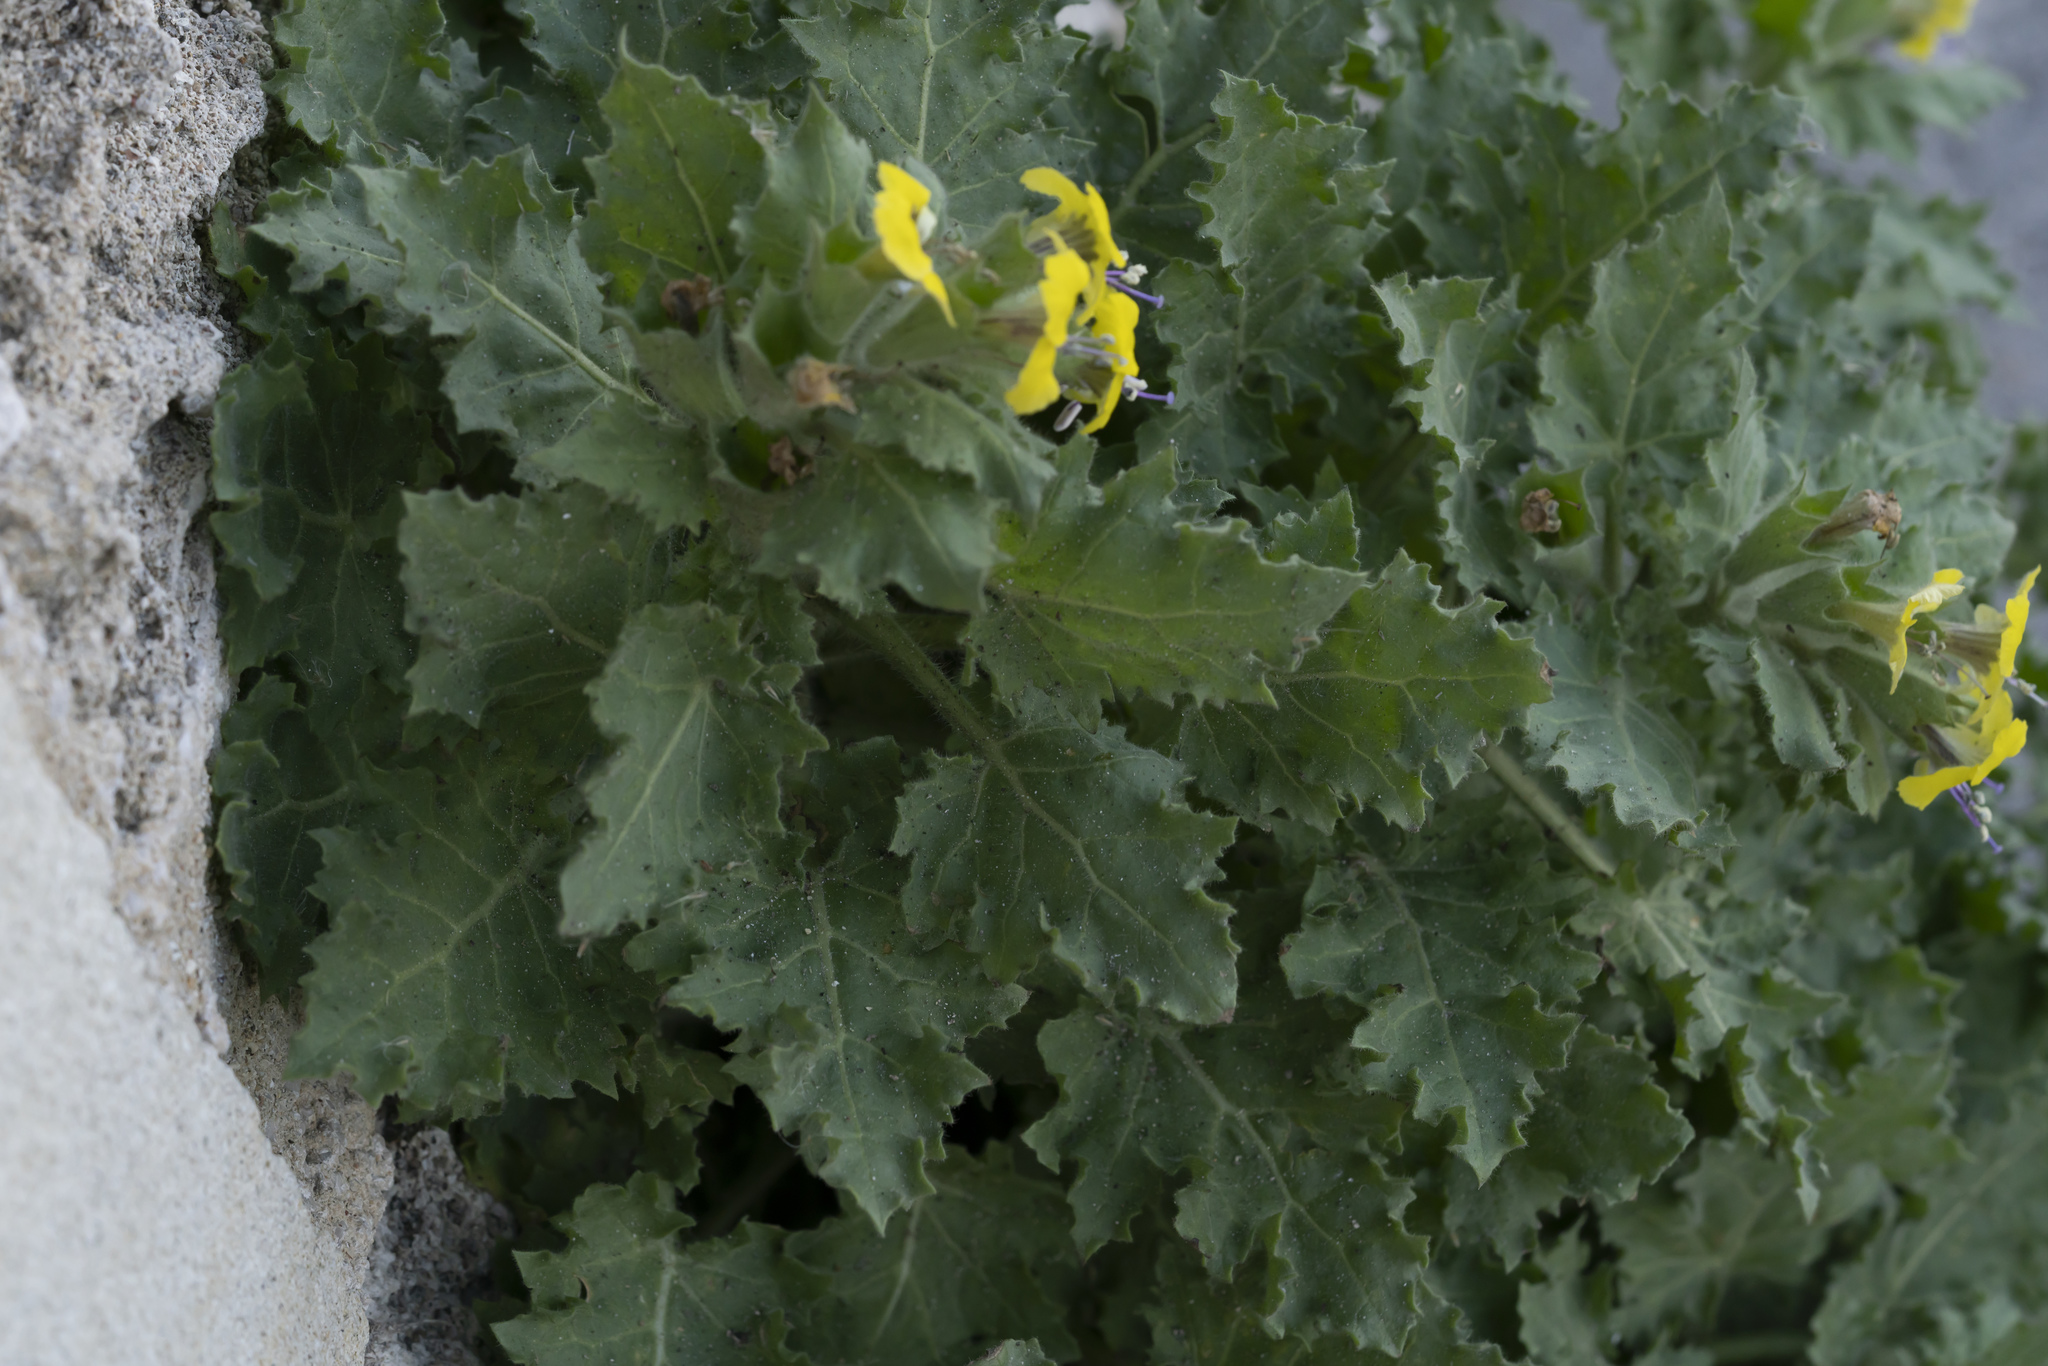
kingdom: Plantae
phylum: Tracheophyta
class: Magnoliopsida
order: Solanales
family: Solanaceae
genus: Hyoscyamus
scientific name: Hyoscyamus aureus
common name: Golden henbane
